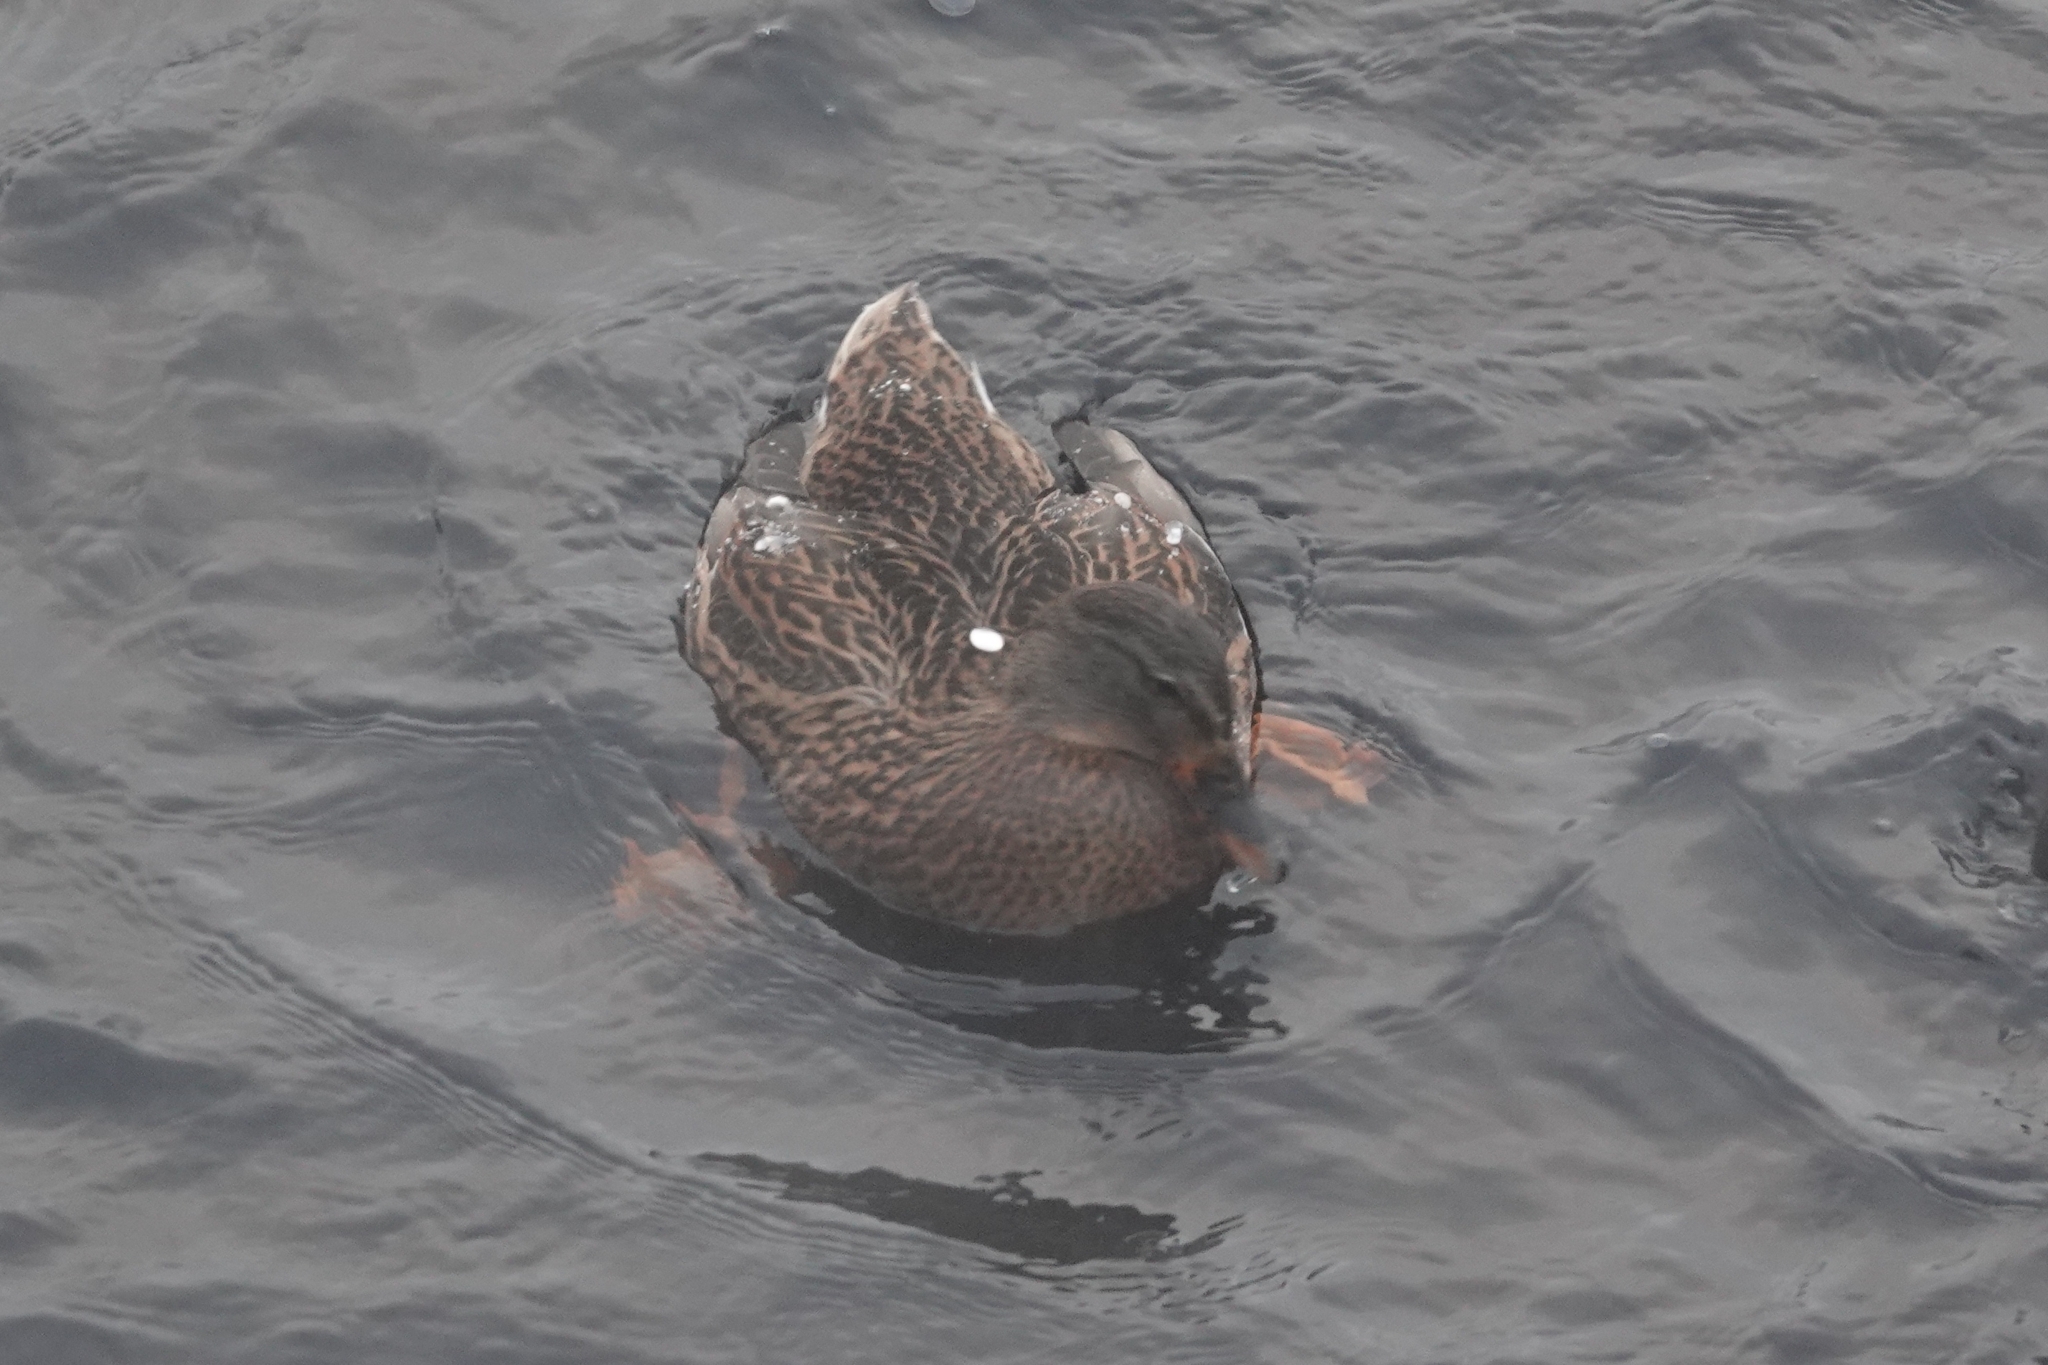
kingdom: Animalia
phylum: Chordata
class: Aves
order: Anseriformes
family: Anatidae
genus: Anas
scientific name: Anas platyrhynchos
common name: Mallard
